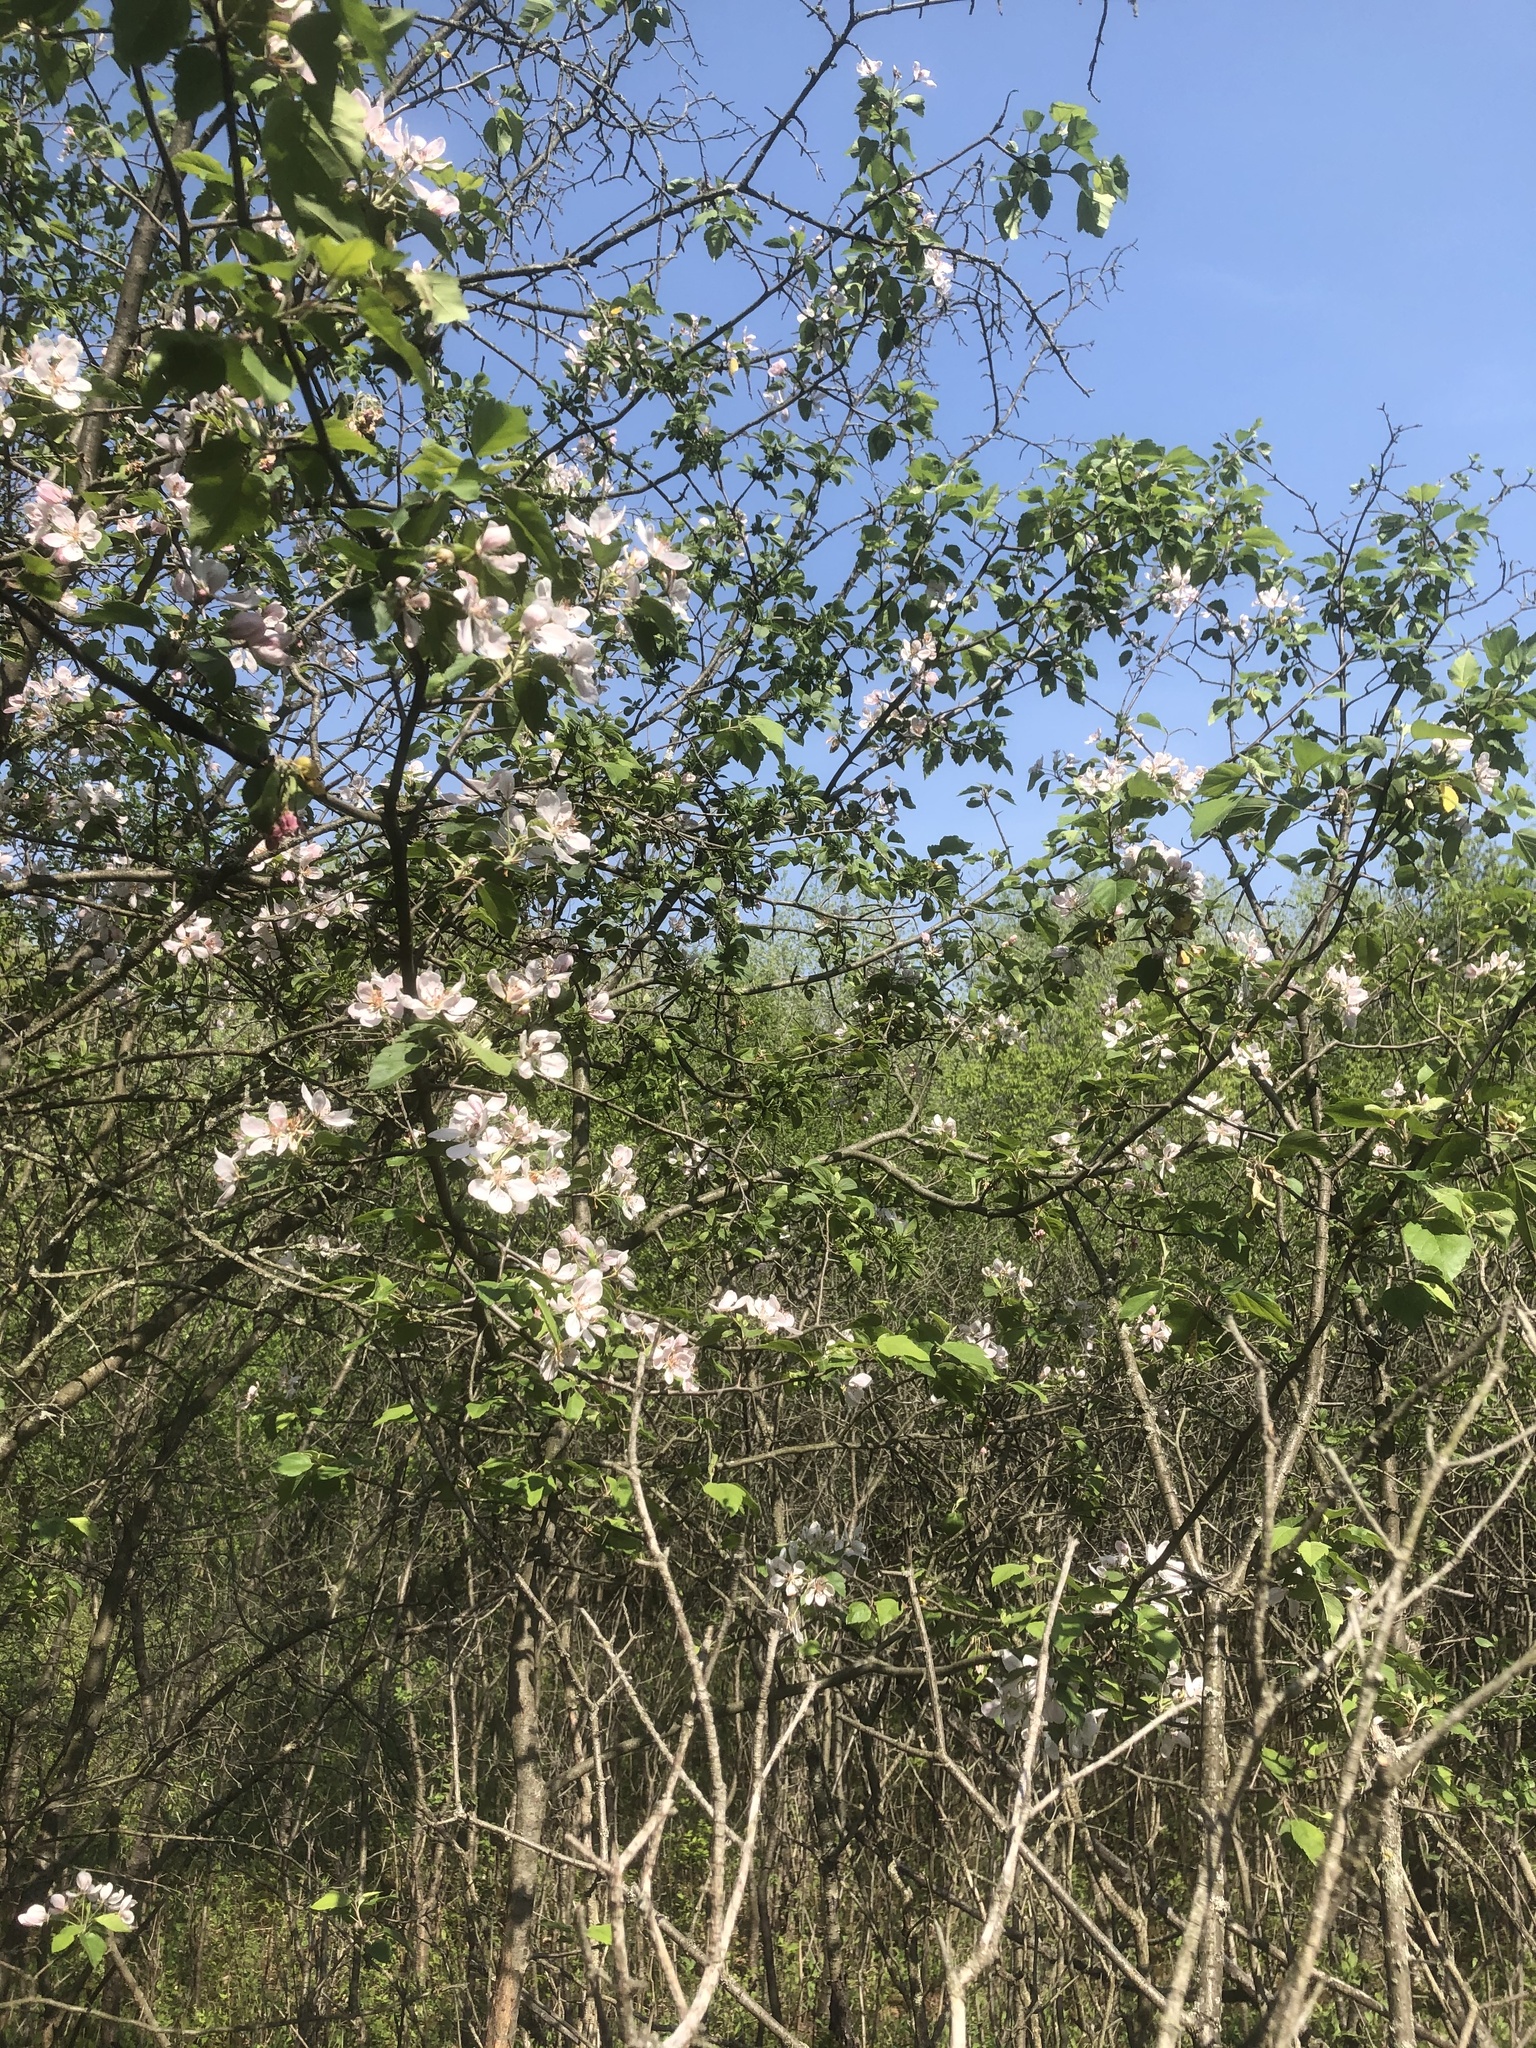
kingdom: Plantae
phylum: Tracheophyta
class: Magnoliopsida
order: Rosales
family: Rosaceae
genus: Malus
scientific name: Malus coronaria
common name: Sweet crab apple
